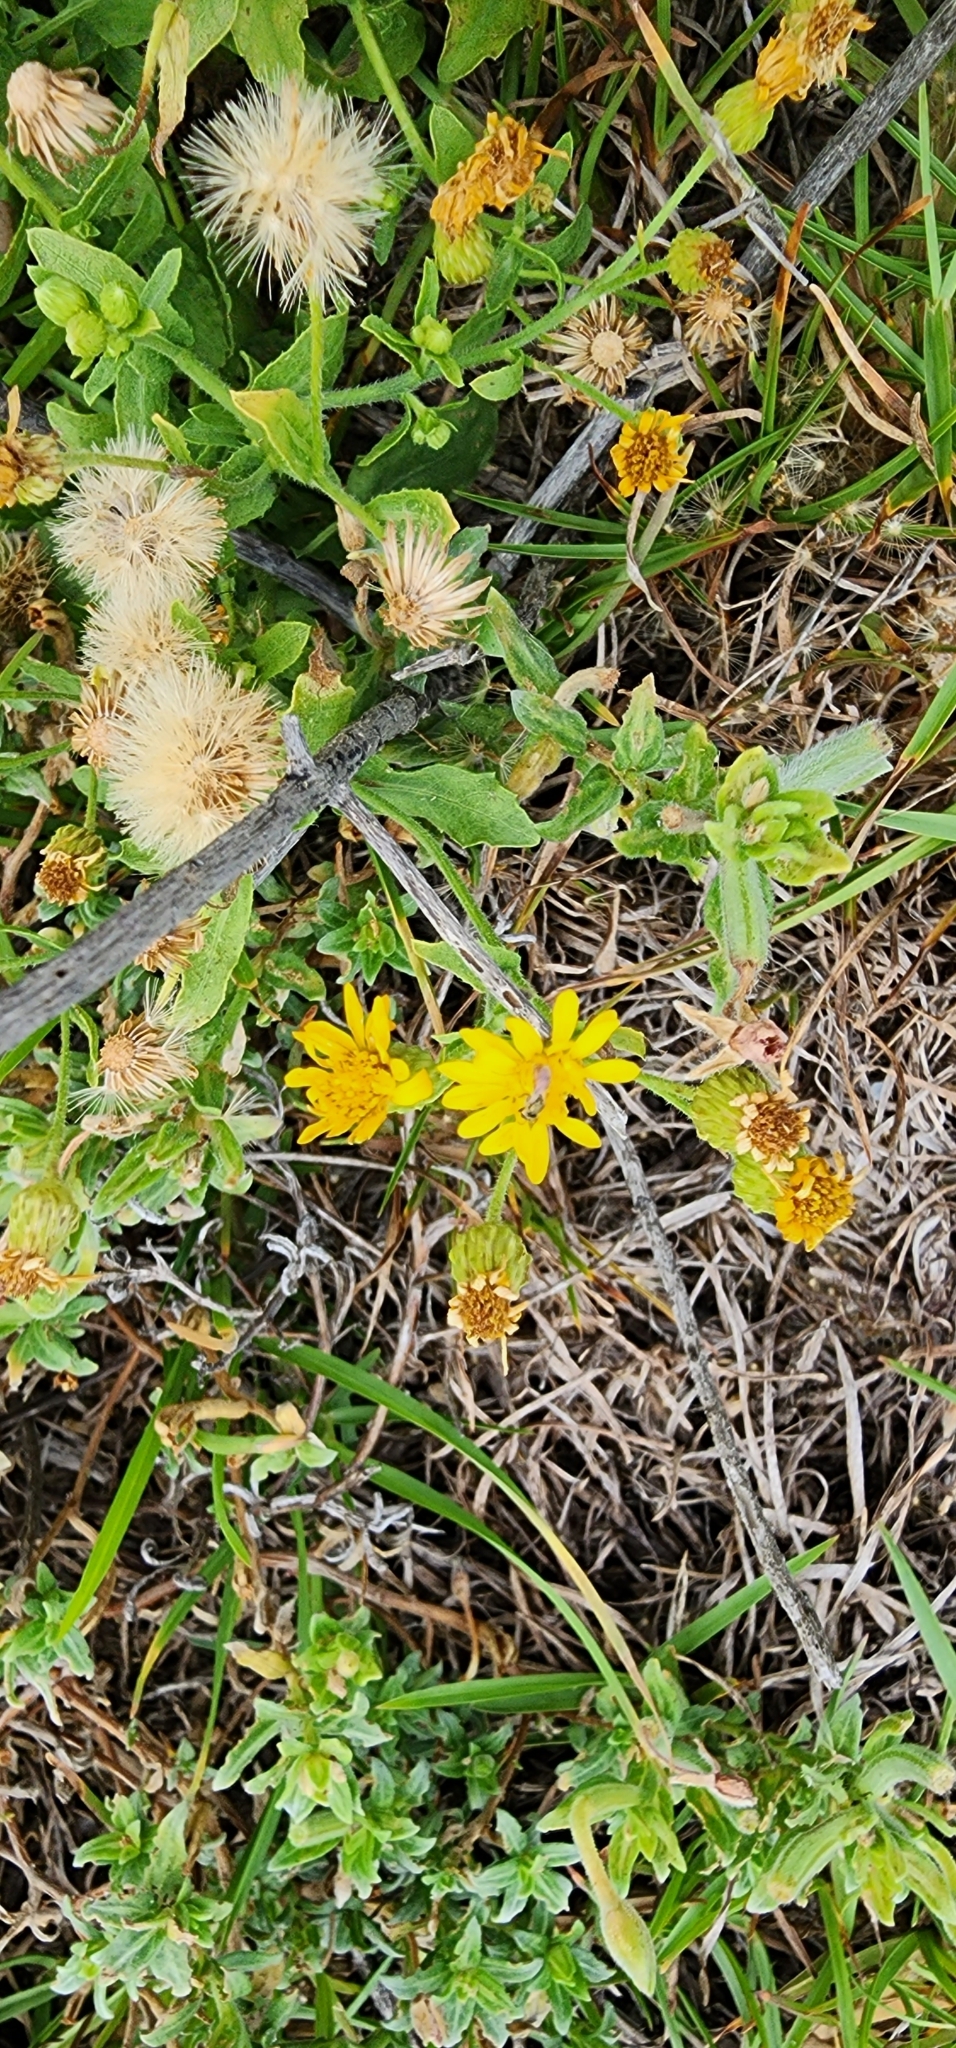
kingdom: Plantae
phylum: Tracheophyta
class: Magnoliopsida
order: Asterales
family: Asteraceae
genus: Heterotheca
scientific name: Heterotheca subaxillaris
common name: Camphorweed
